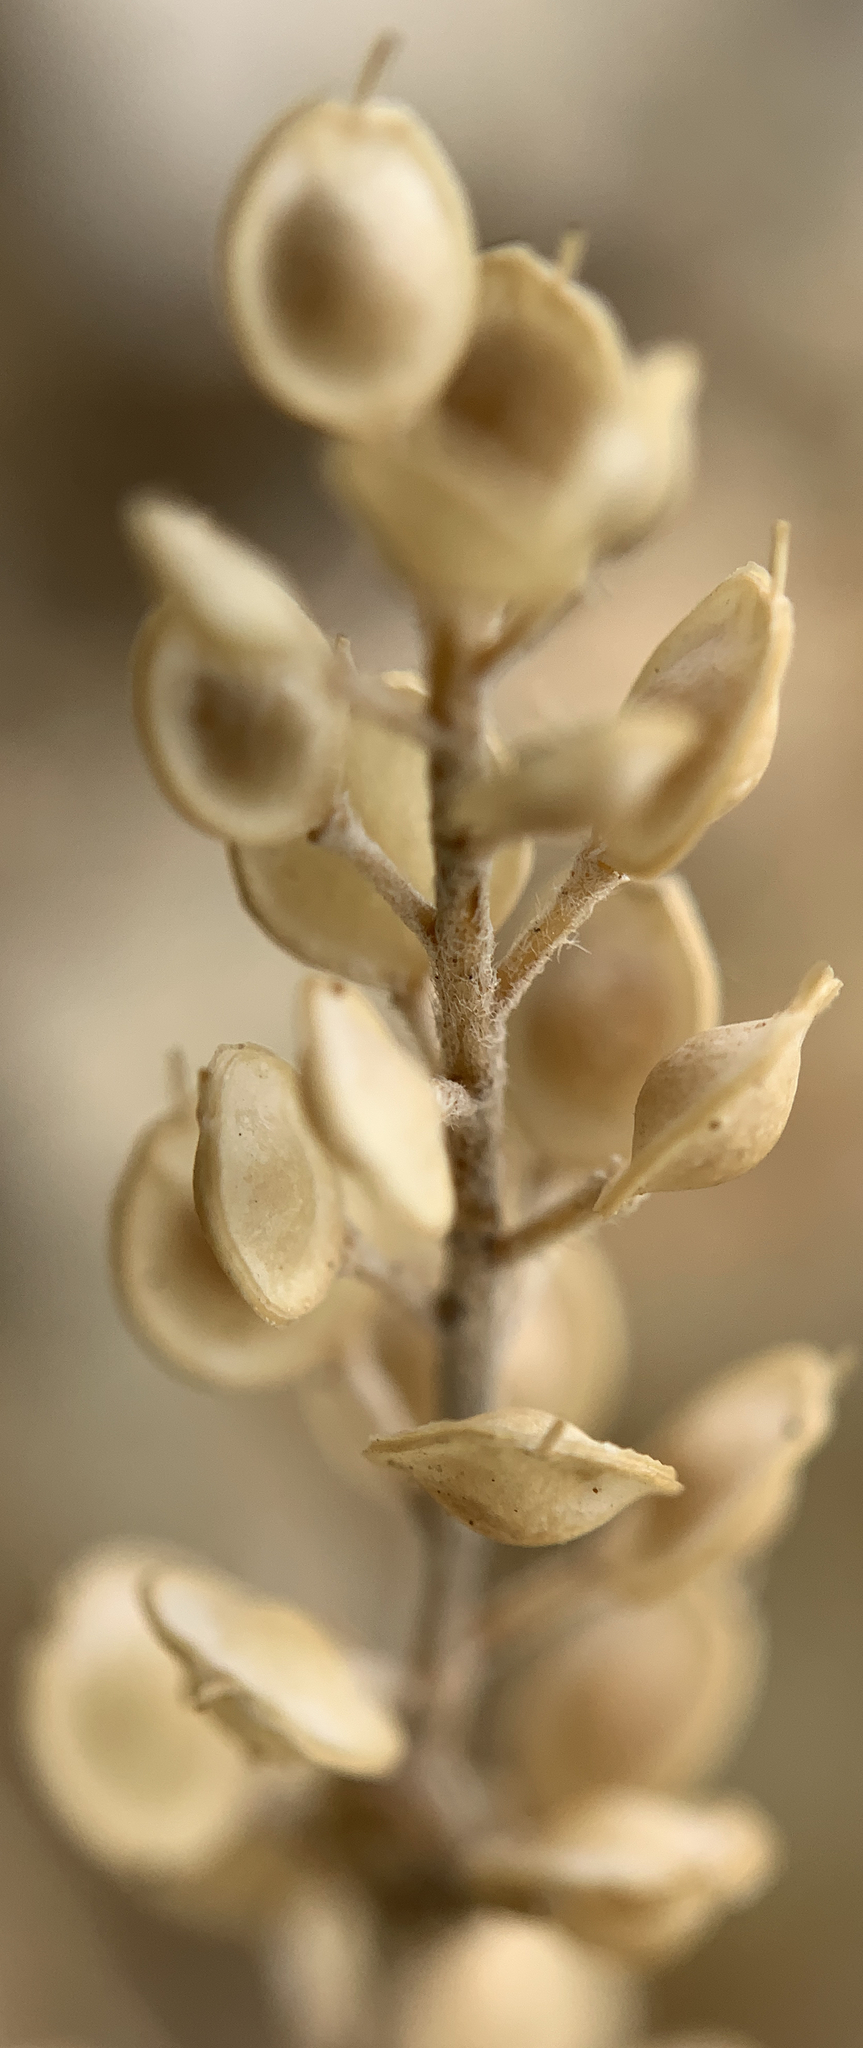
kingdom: Plantae
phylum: Tracheophyta
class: Magnoliopsida
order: Brassicales
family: Brassicaceae
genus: Alyssum
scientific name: Alyssum turkestanicum
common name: Desert alyssum
